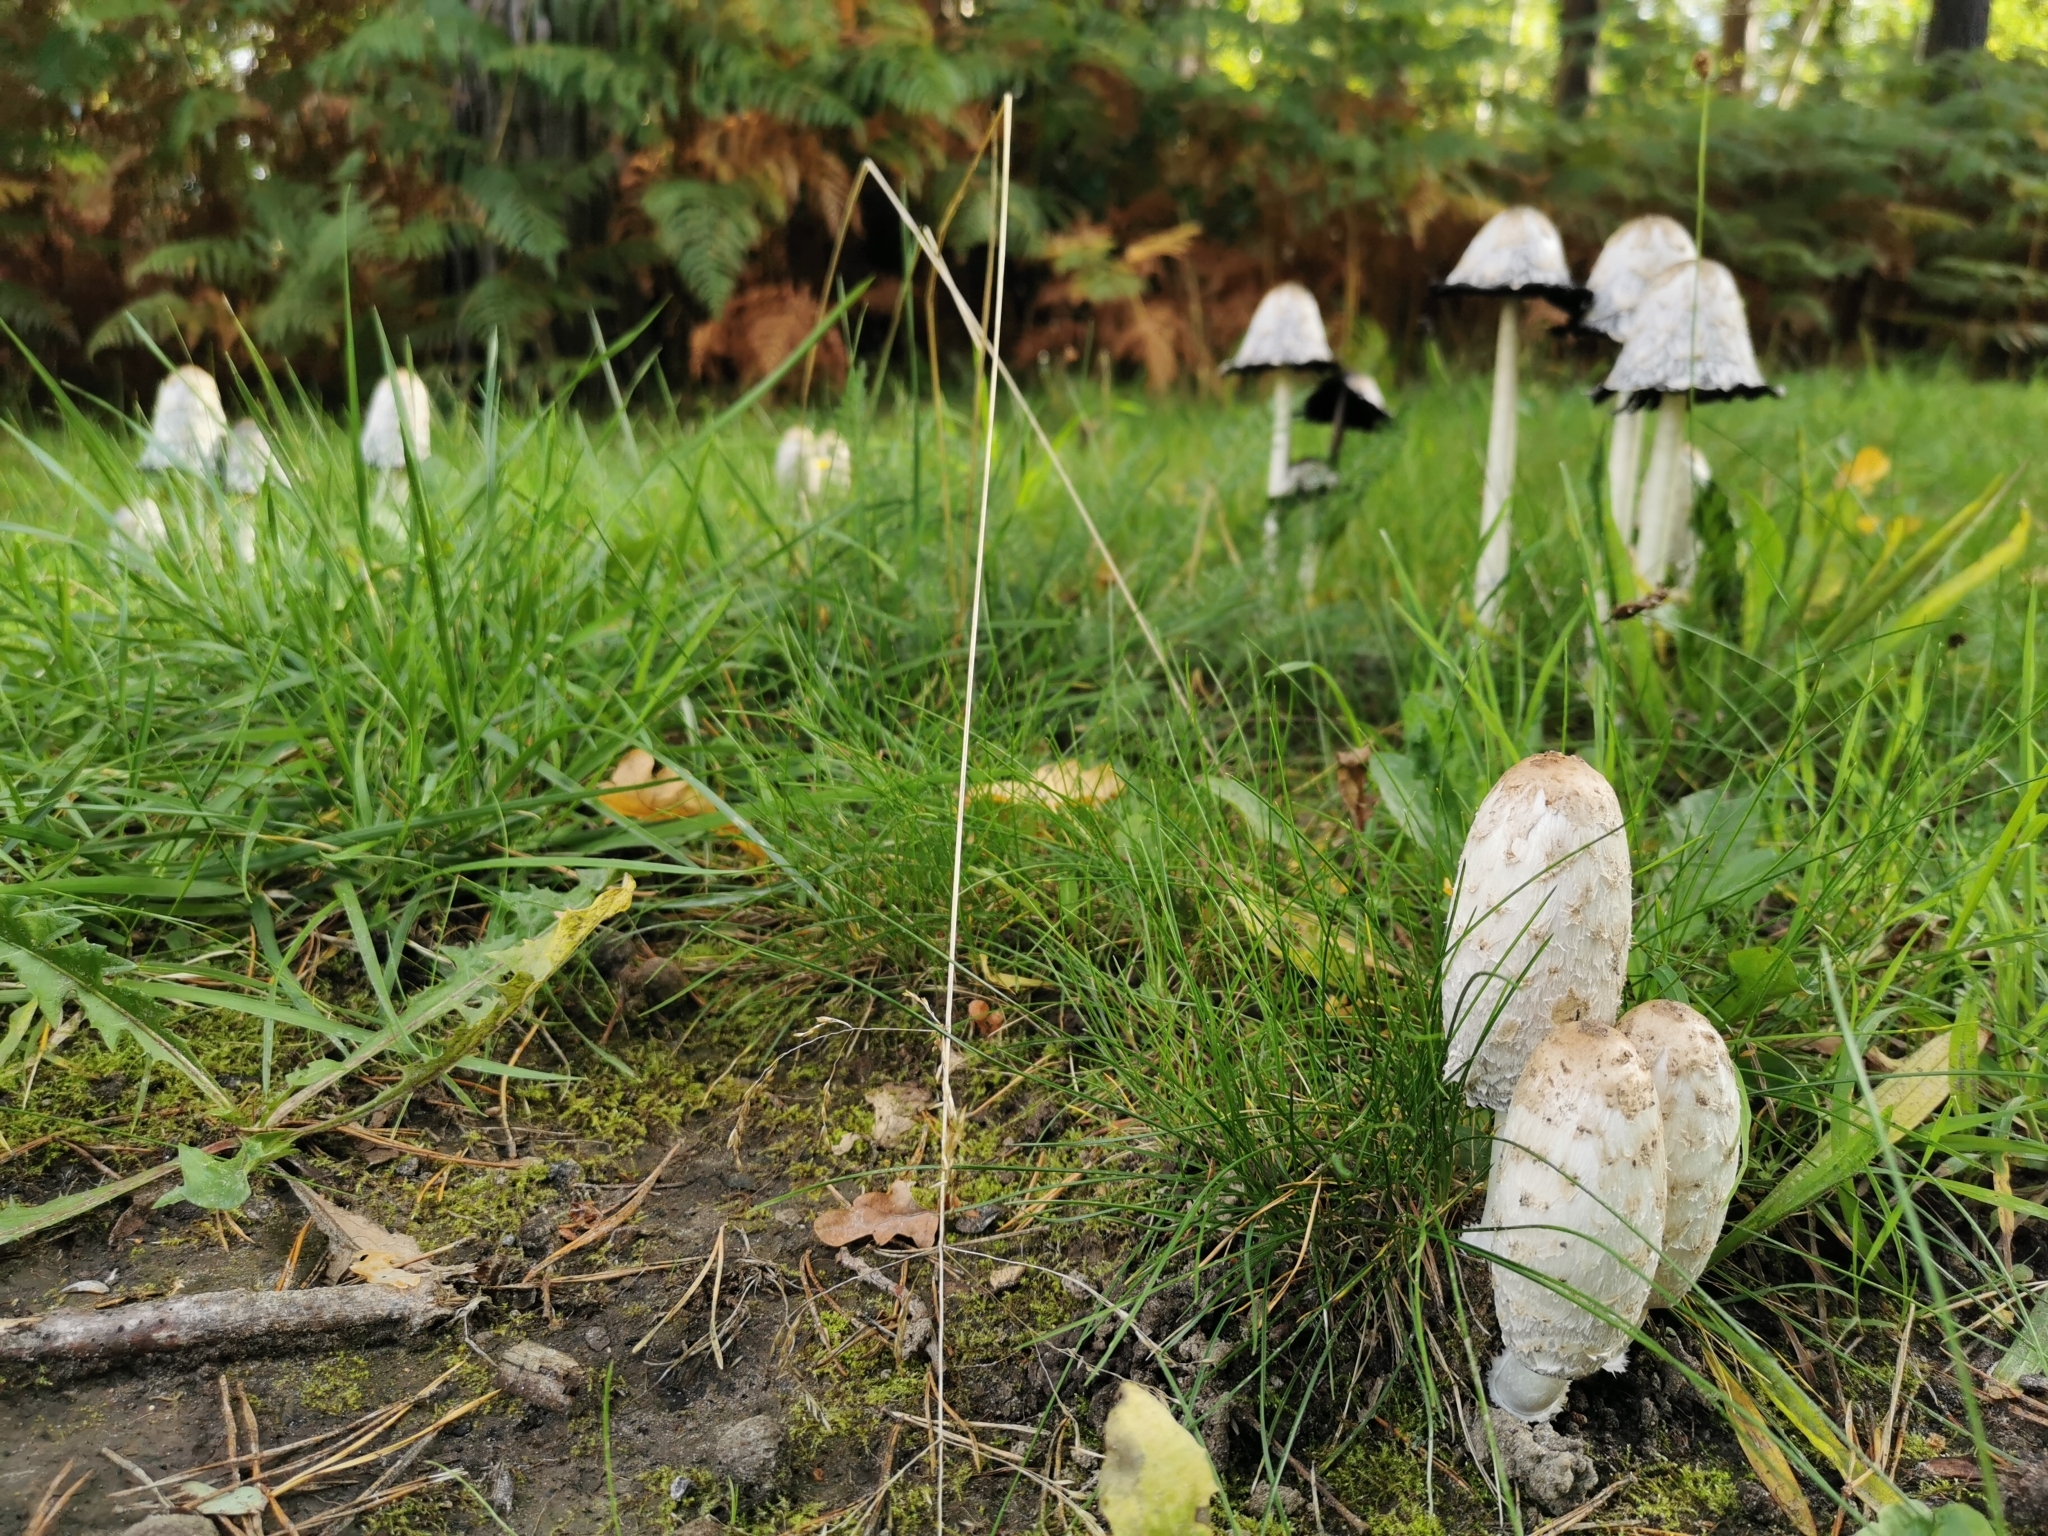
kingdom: Fungi
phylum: Basidiomycota
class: Agaricomycetes
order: Agaricales
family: Agaricaceae
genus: Coprinus
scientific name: Coprinus comatus
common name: Lawyer's wig
